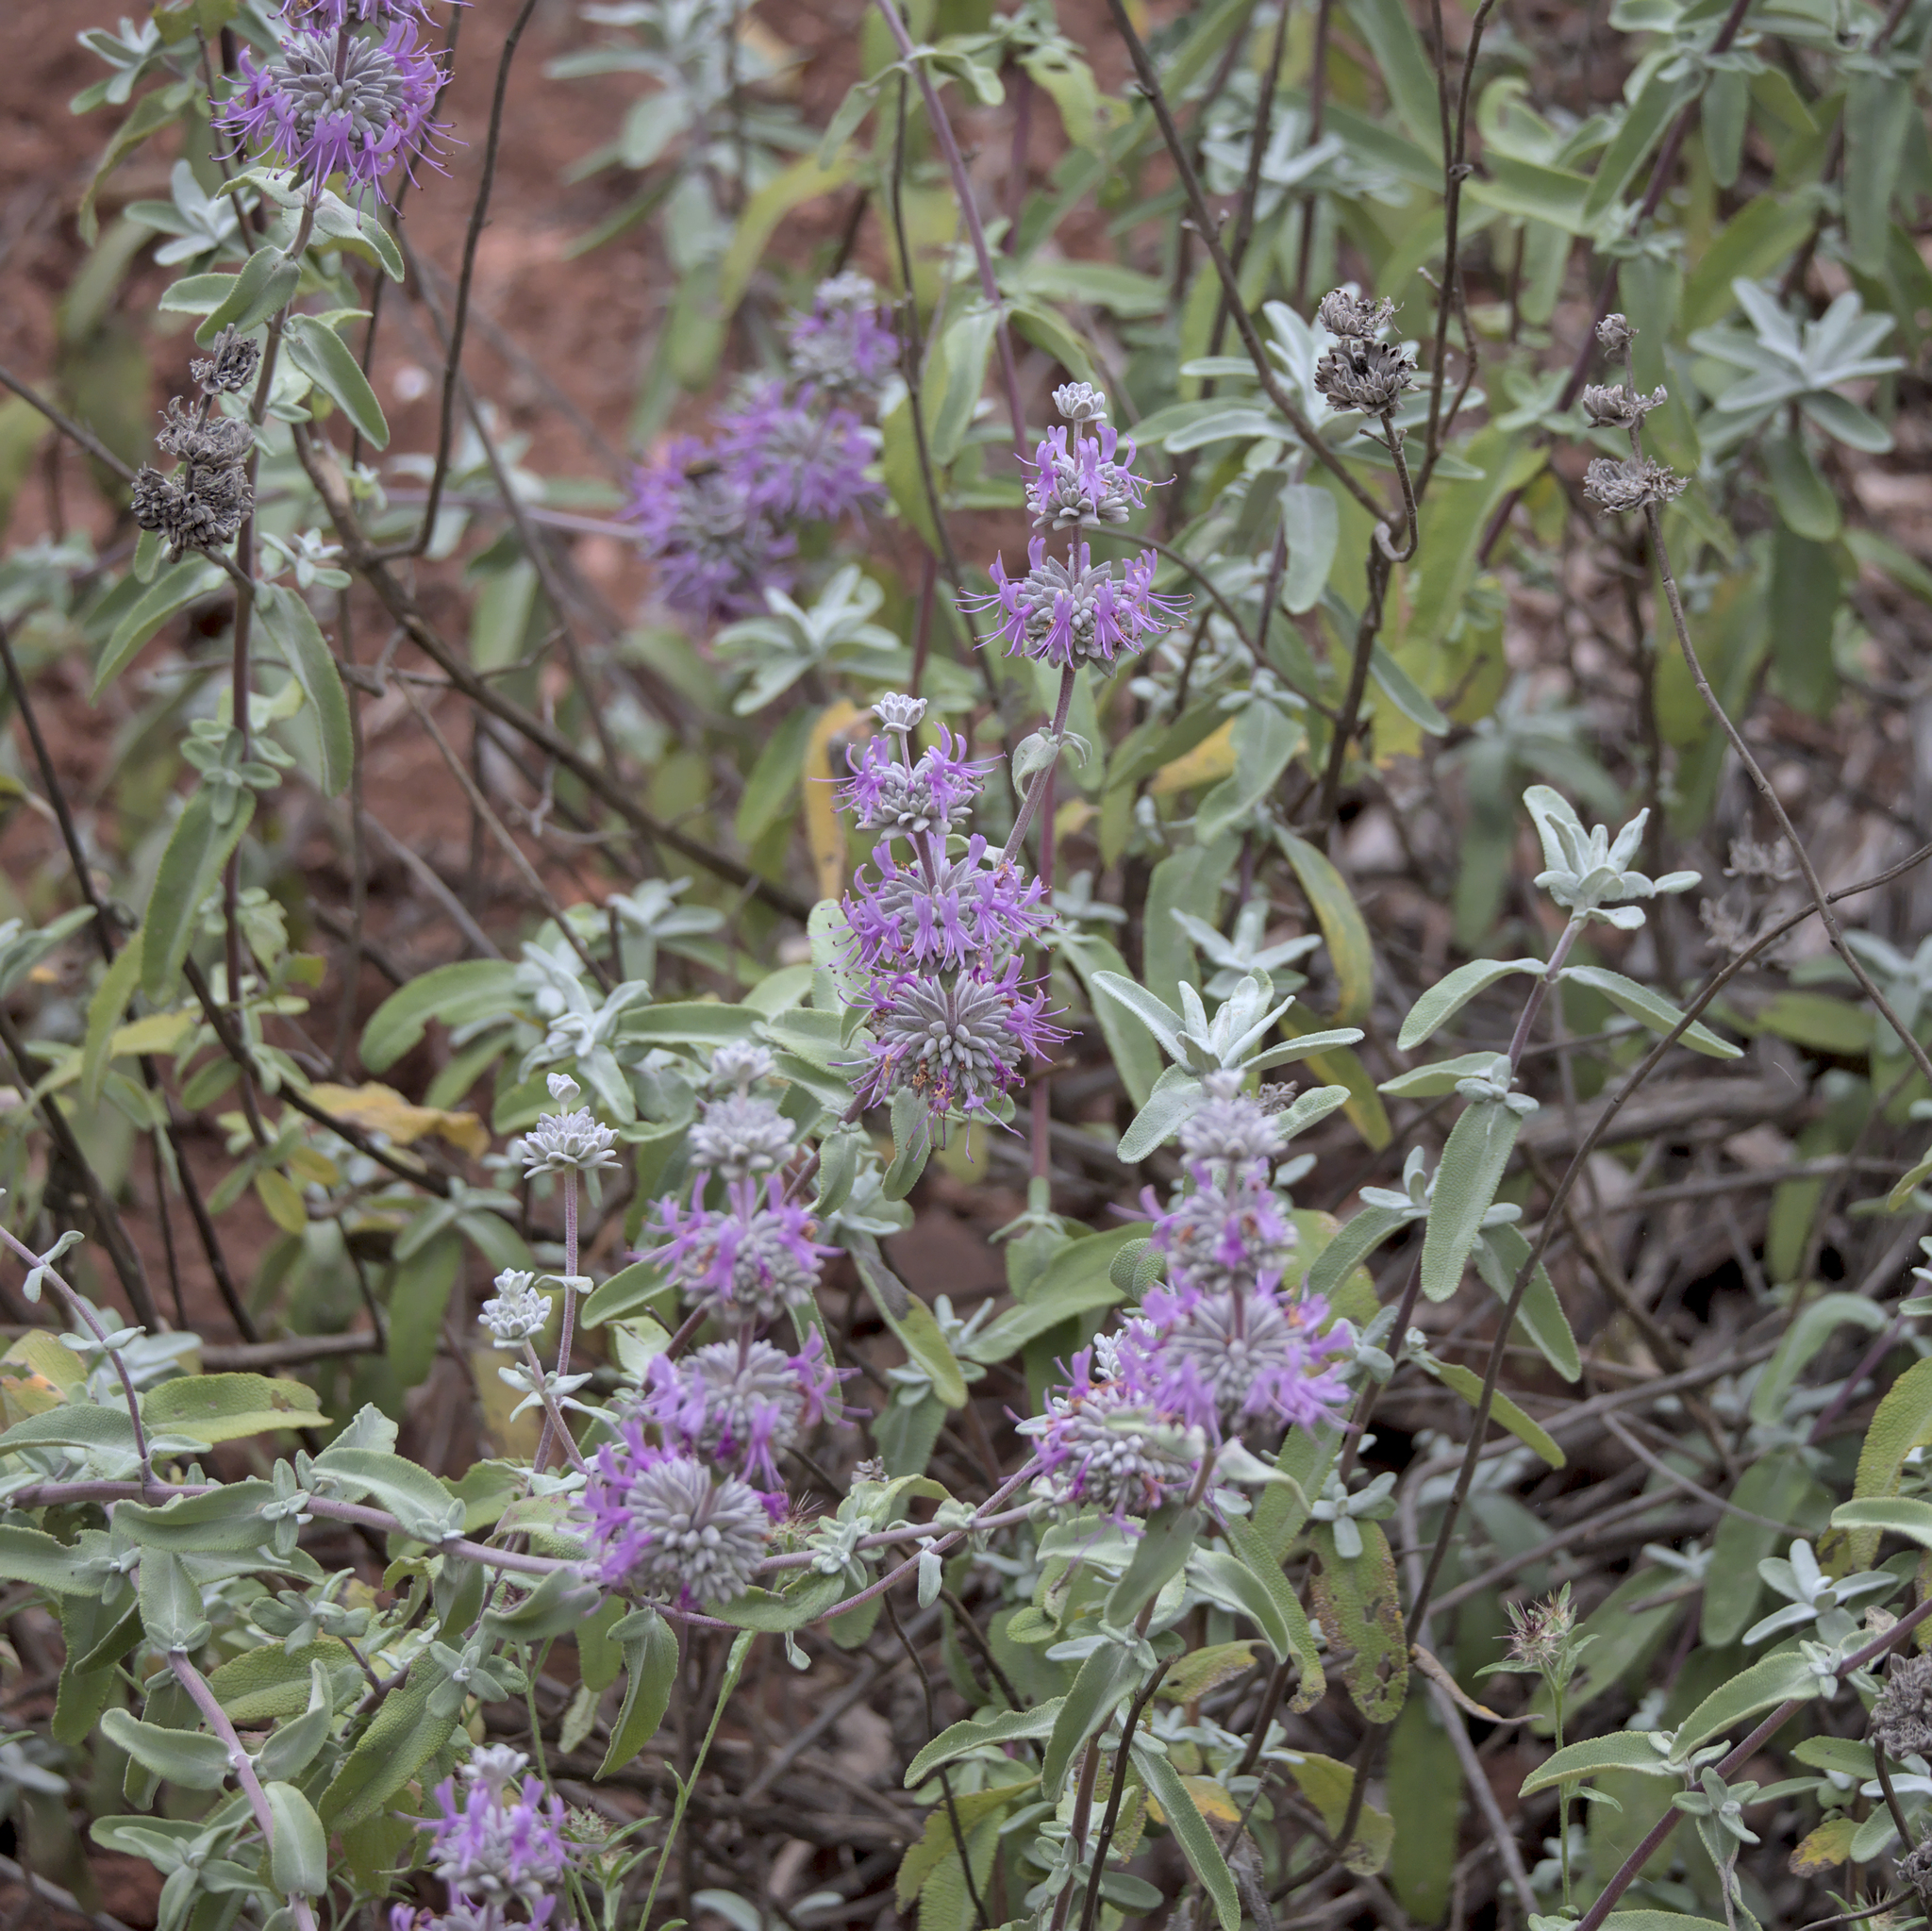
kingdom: Plantae
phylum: Tracheophyta
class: Magnoliopsida
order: Lamiales
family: Lamiaceae
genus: Salvia
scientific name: Salvia leucophylla
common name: Purple sage
